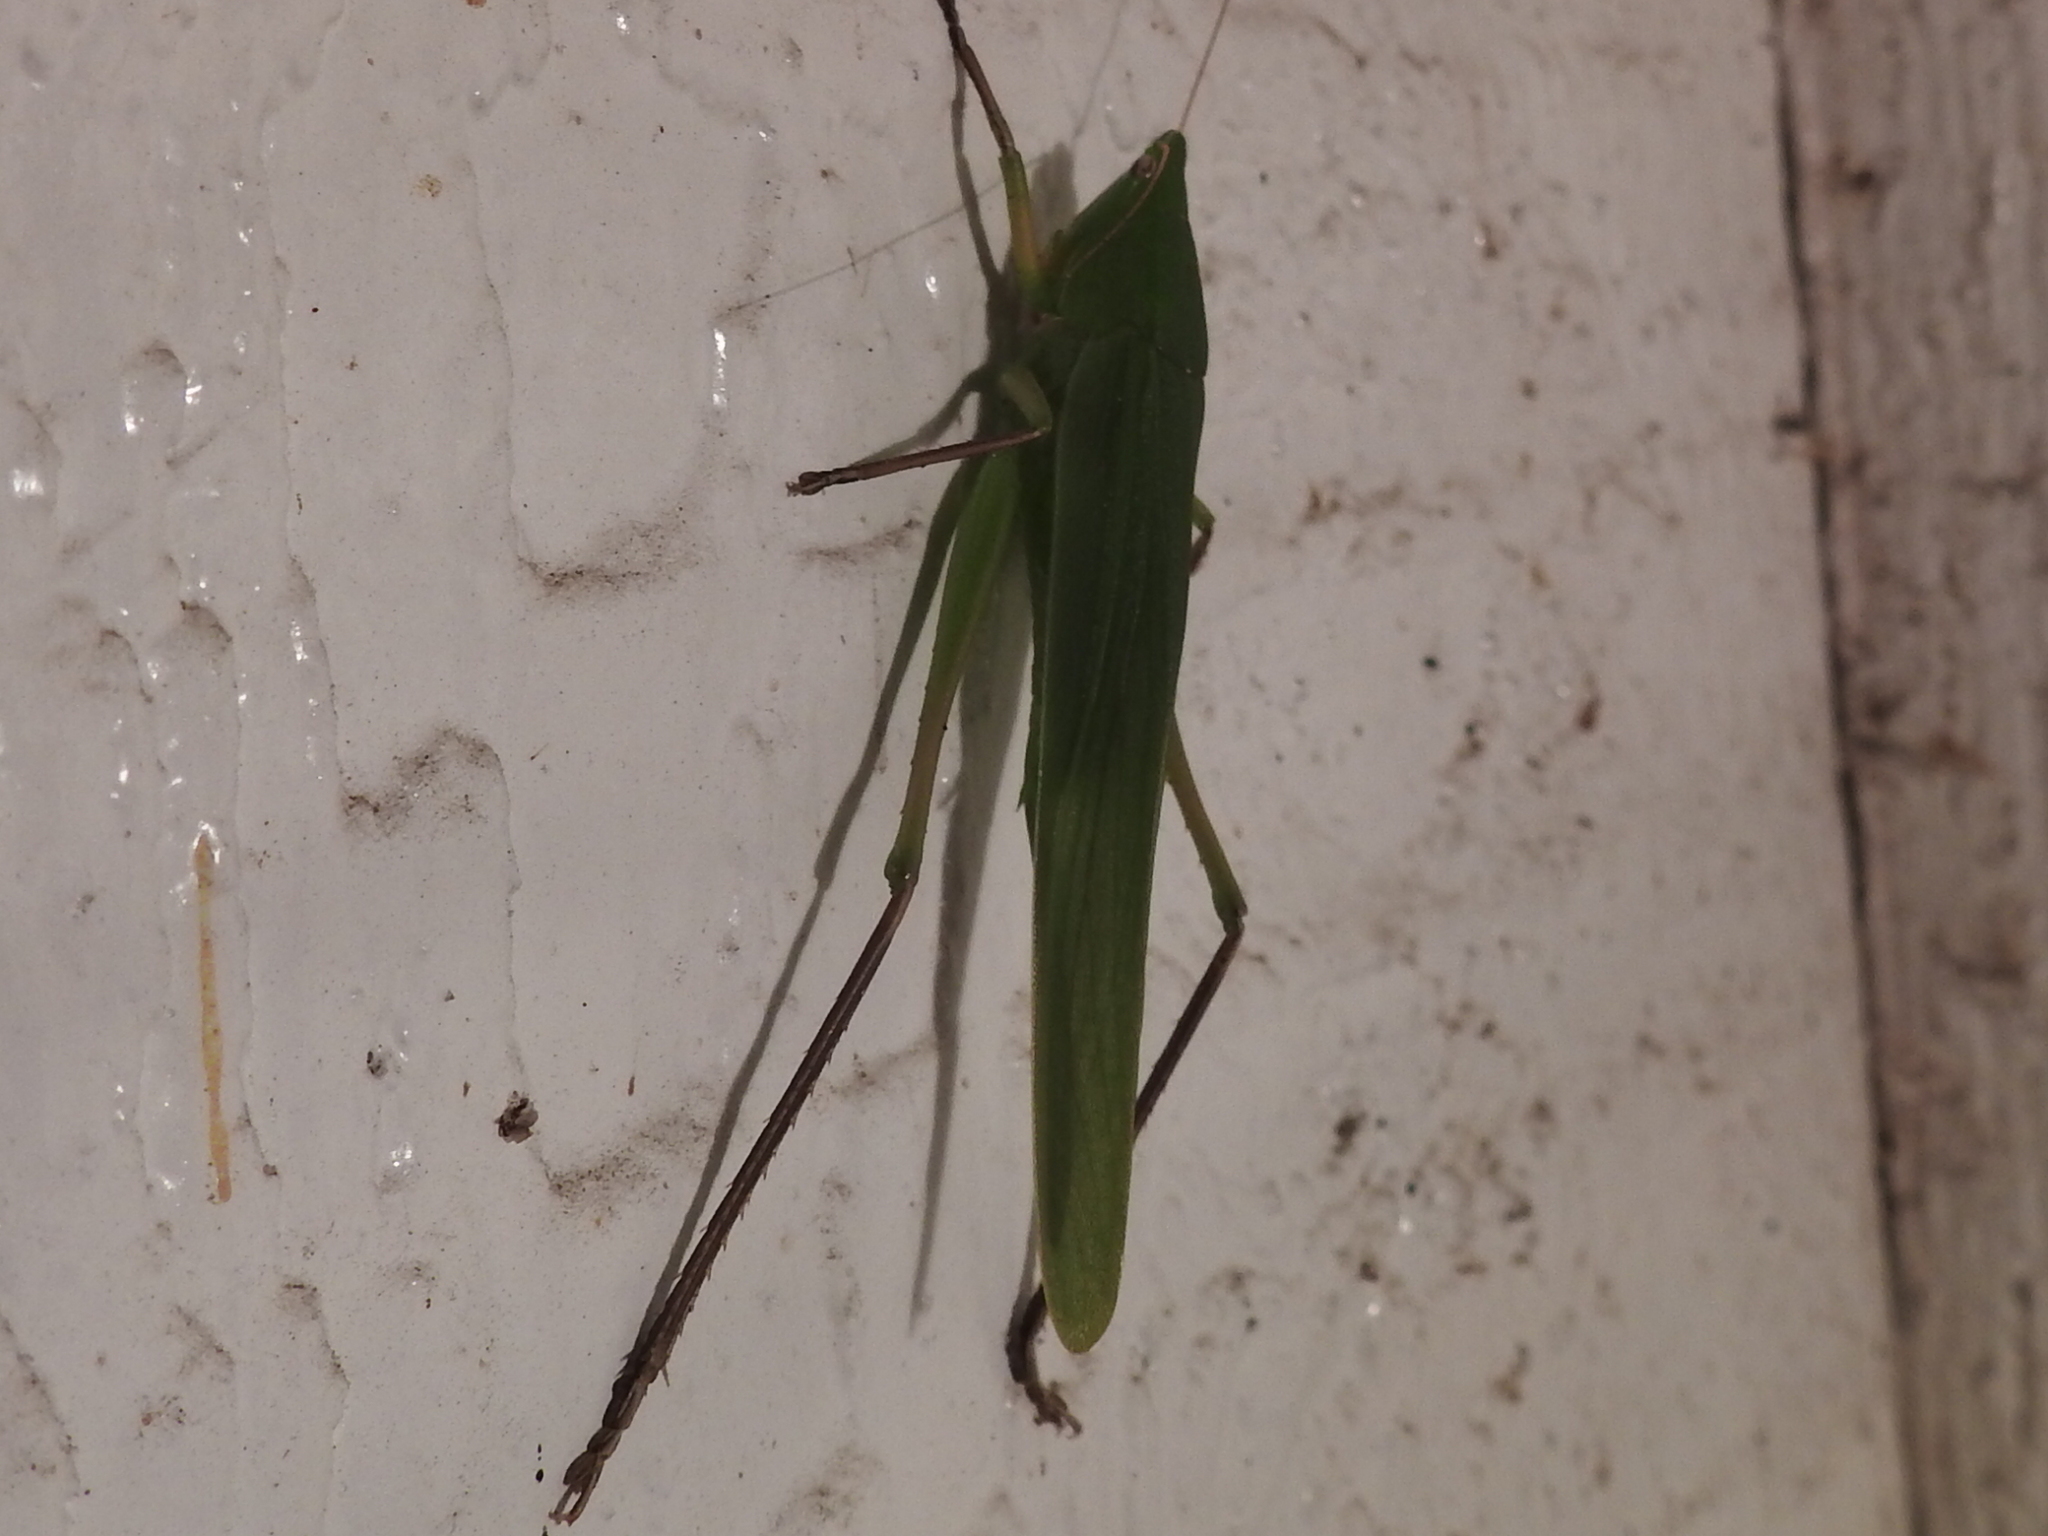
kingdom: Animalia
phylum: Arthropoda
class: Insecta
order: Orthoptera
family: Tettigoniidae
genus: Neoconocephalus
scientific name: Neoconocephalus triops
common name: Broad-tipped conehead
